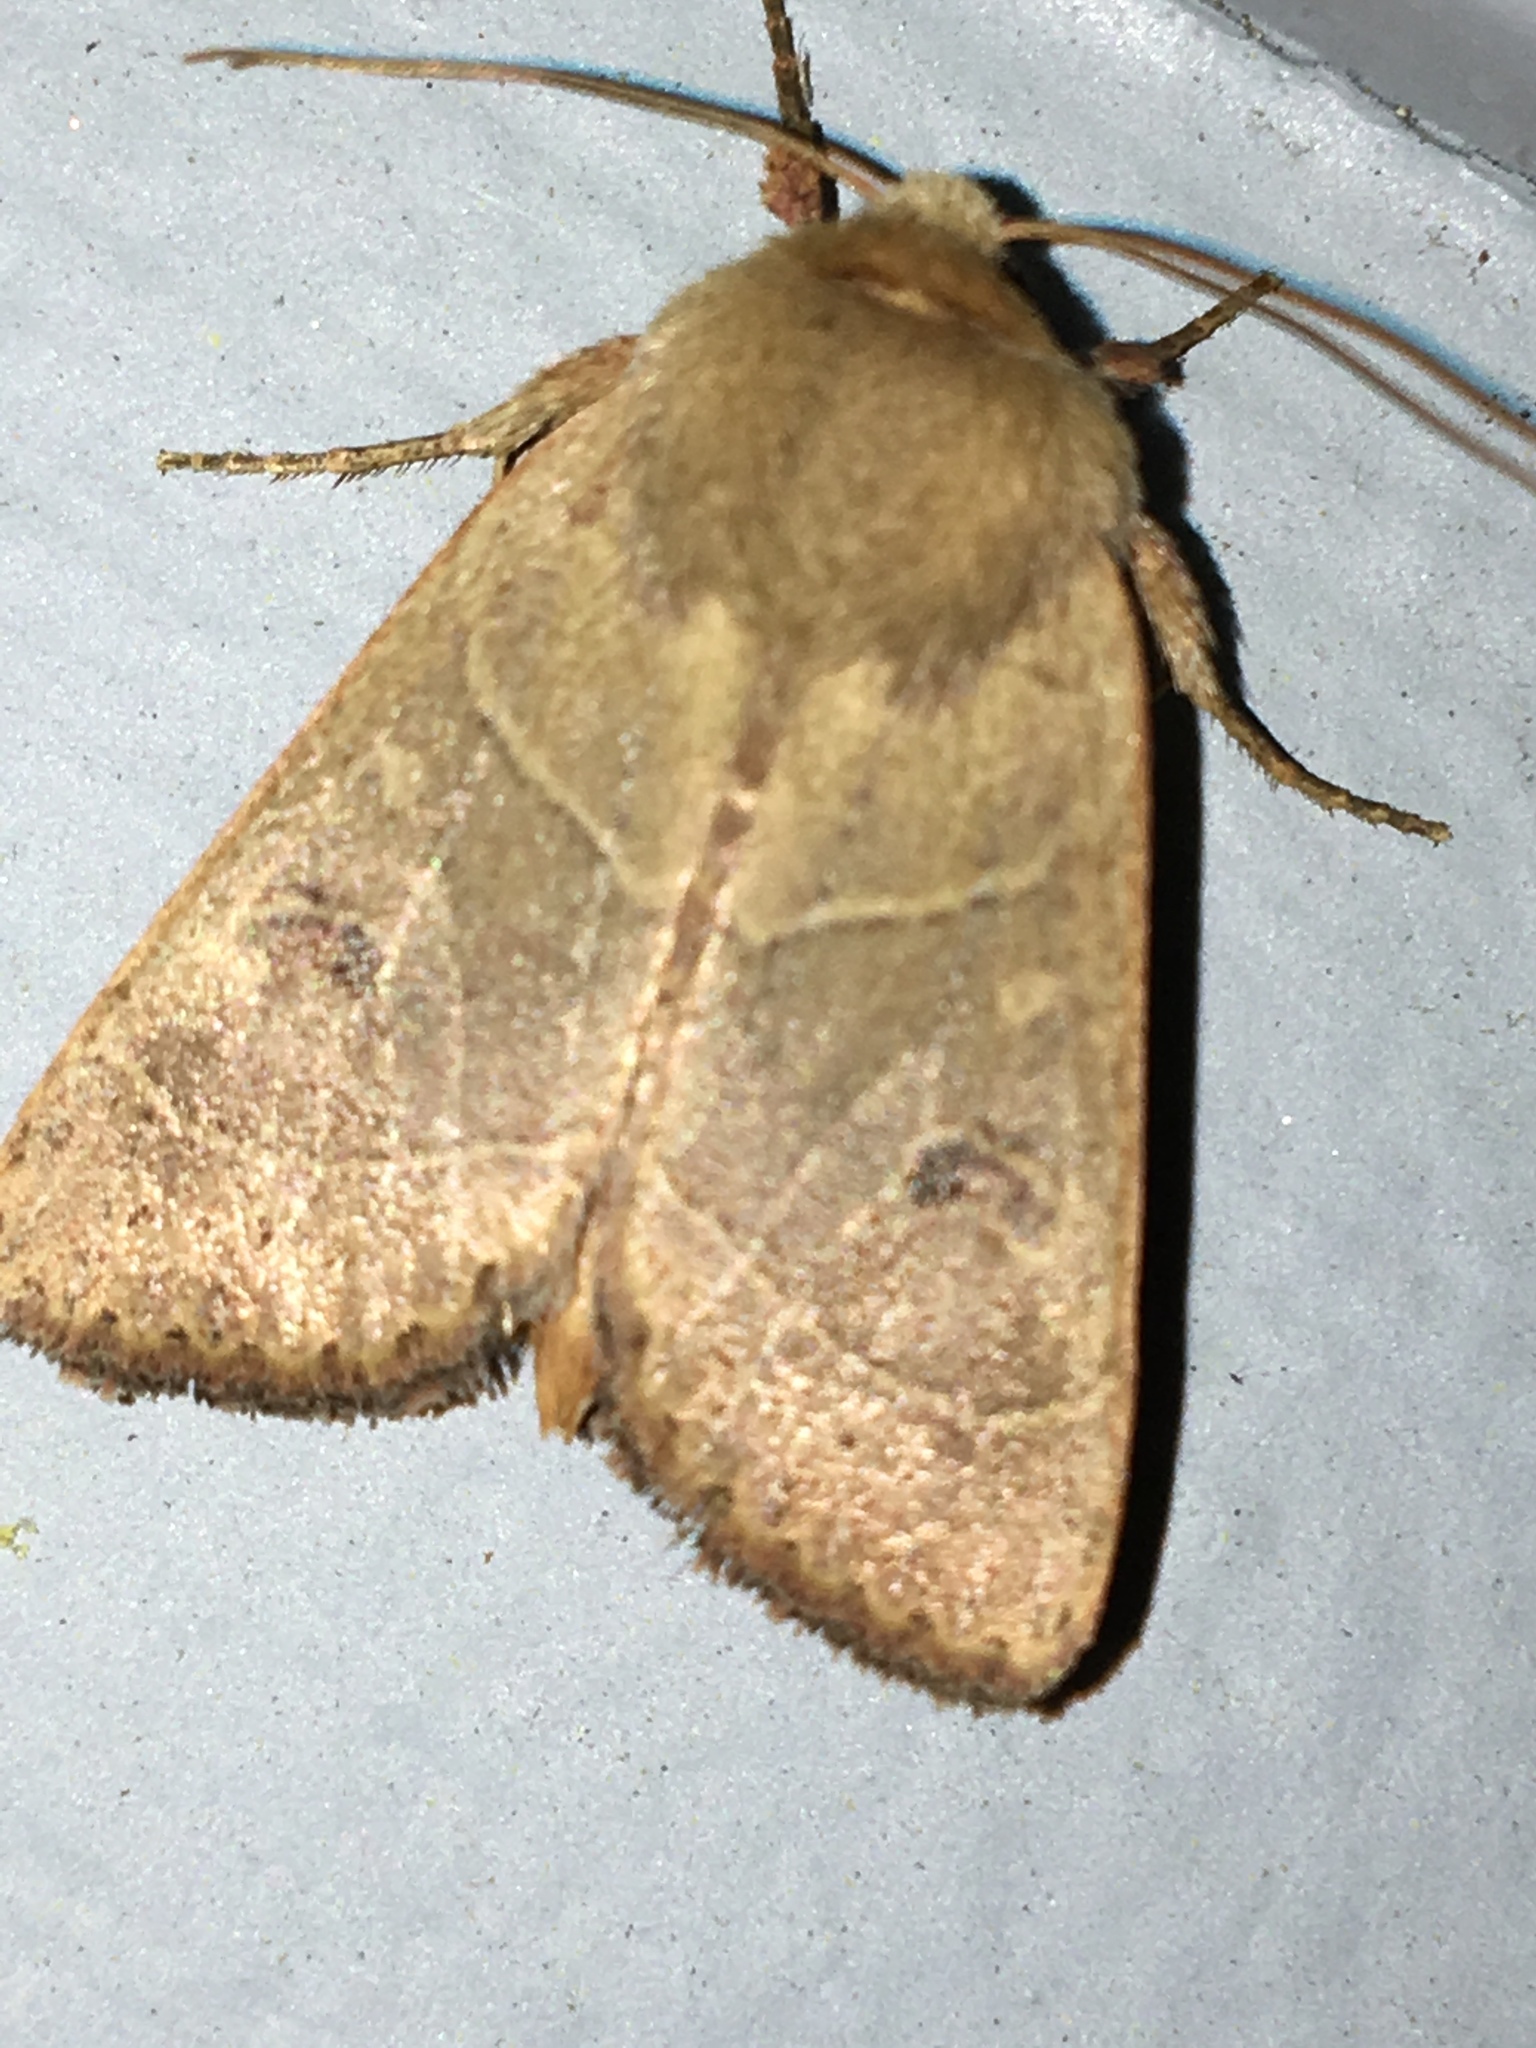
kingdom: Animalia
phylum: Arthropoda
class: Insecta
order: Lepidoptera
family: Noctuidae
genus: Noctua
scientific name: Noctua pronuba
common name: Large yellow underwing
